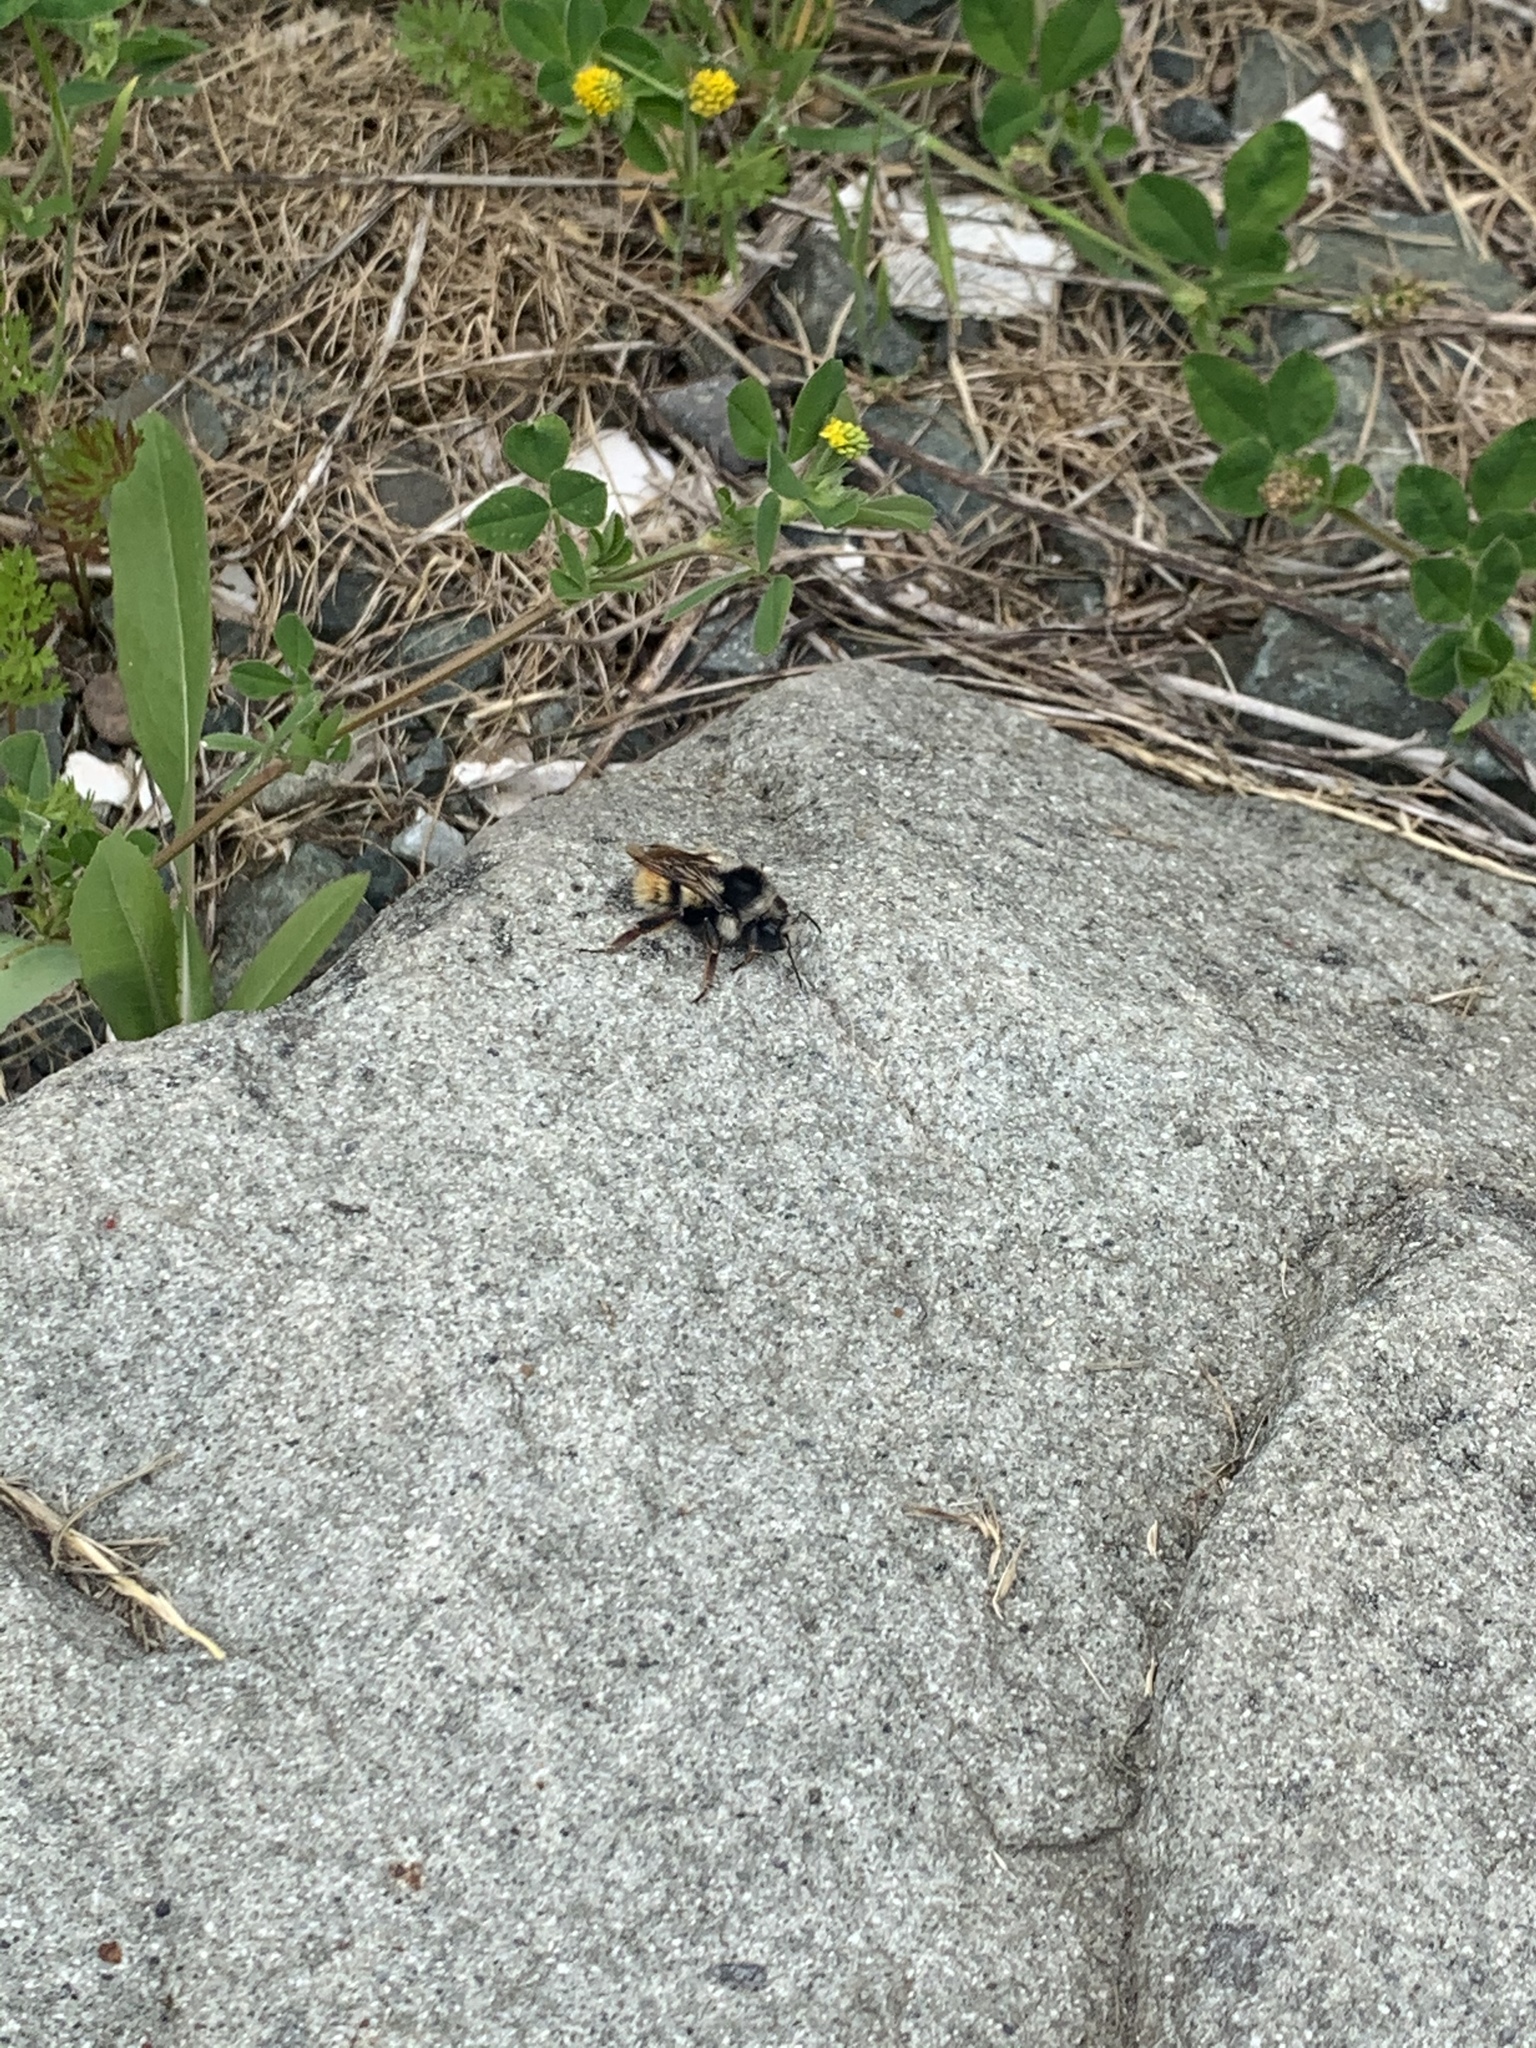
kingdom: Animalia
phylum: Arthropoda
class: Insecta
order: Hymenoptera
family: Apidae
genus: Bombus
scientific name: Bombus vancouverensis
